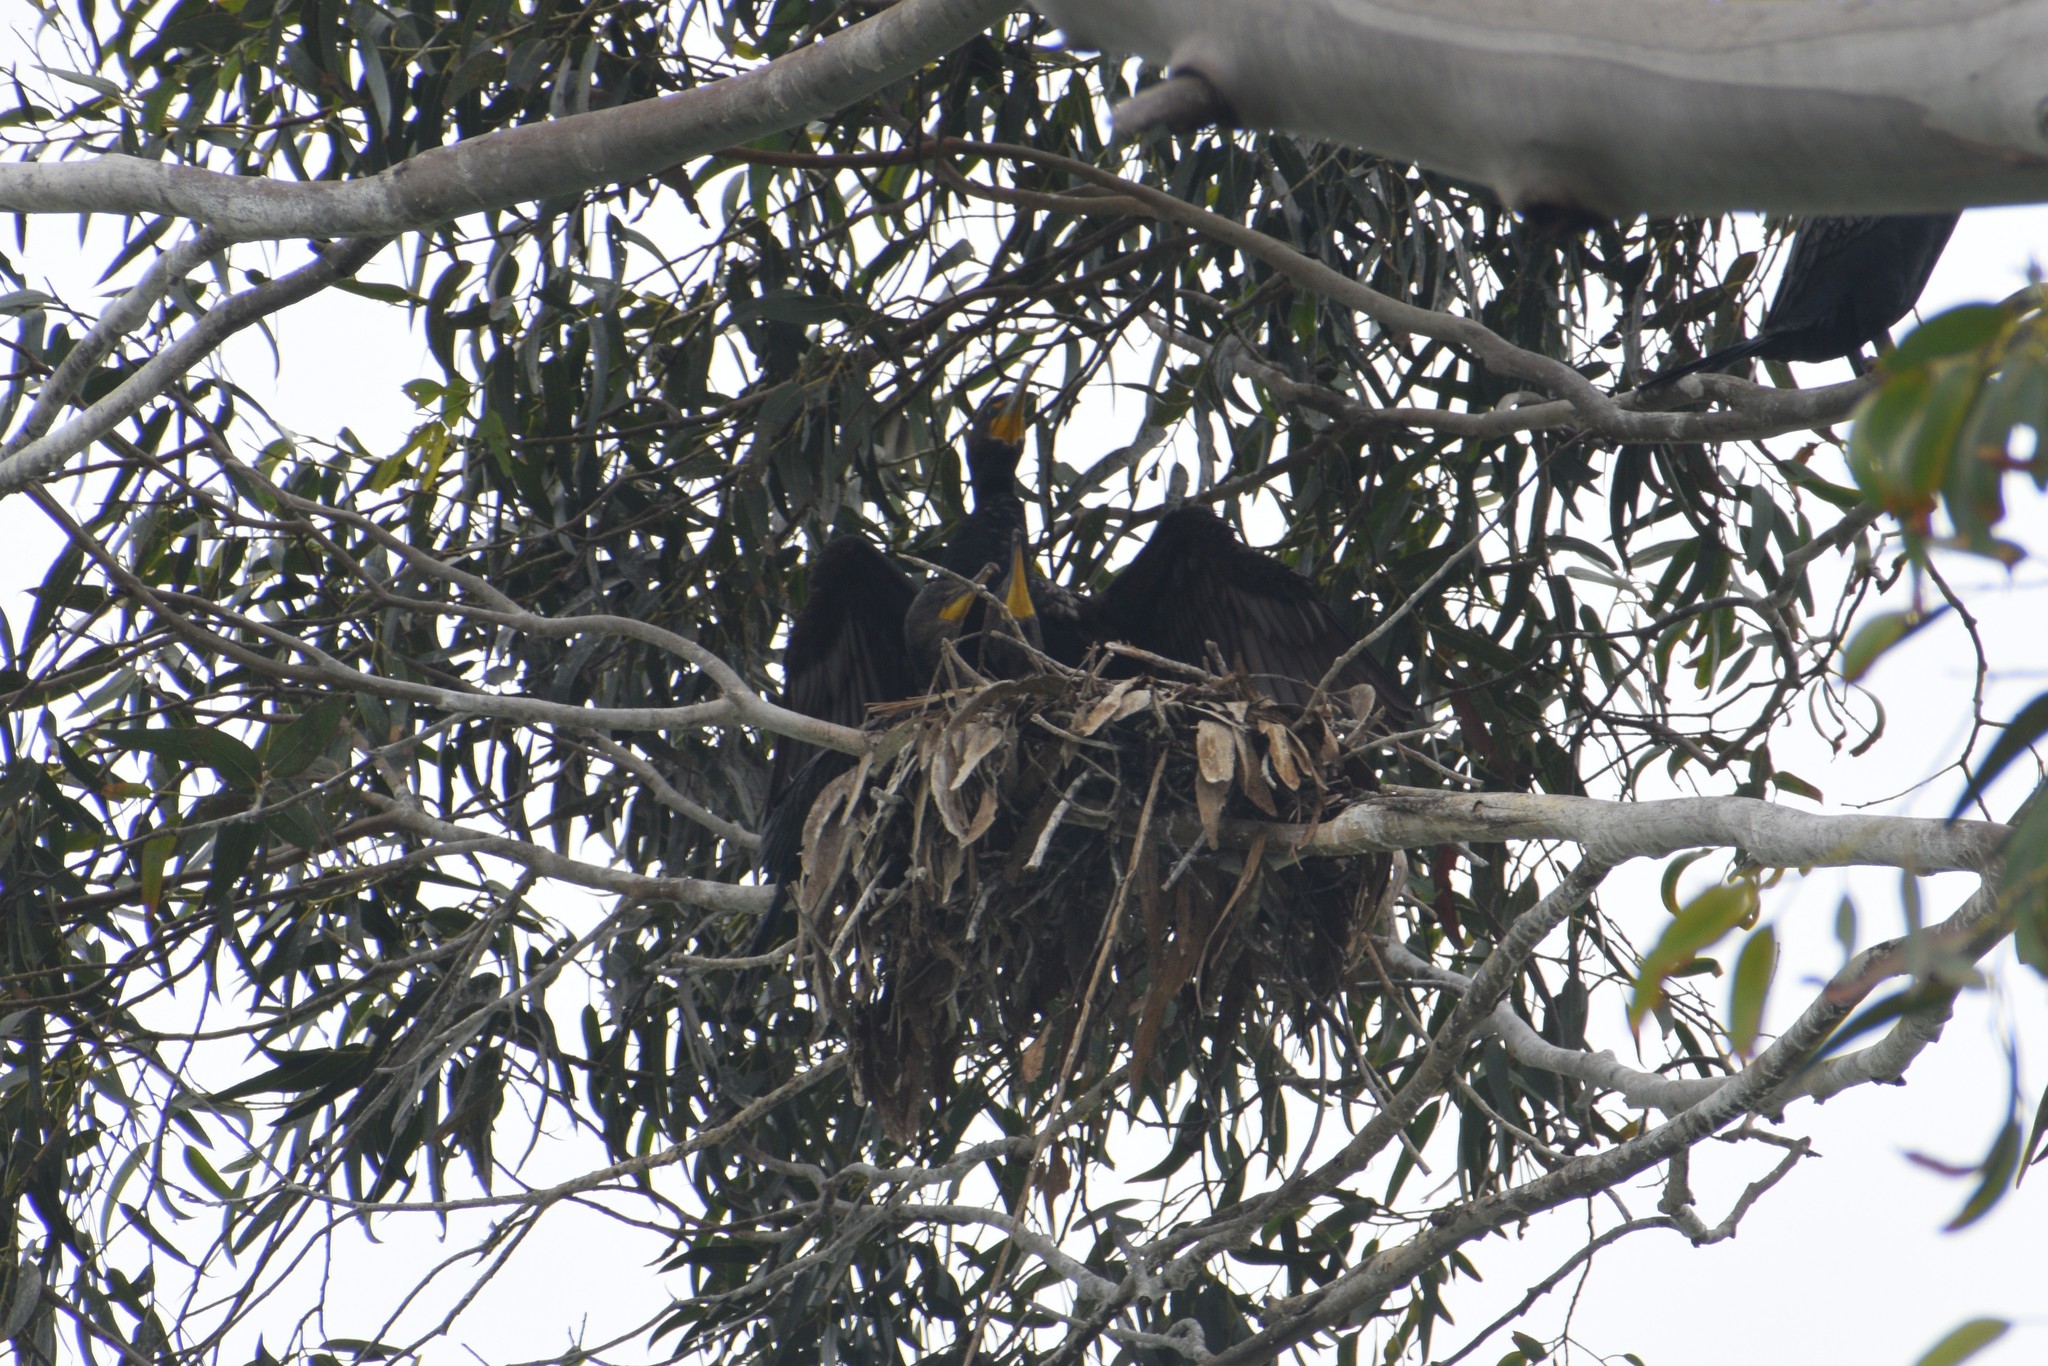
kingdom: Animalia
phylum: Chordata
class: Aves
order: Suliformes
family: Phalacrocoracidae
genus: Phalacrocorax
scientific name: Phalacrocorax auritus
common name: Double-crested cormorant
